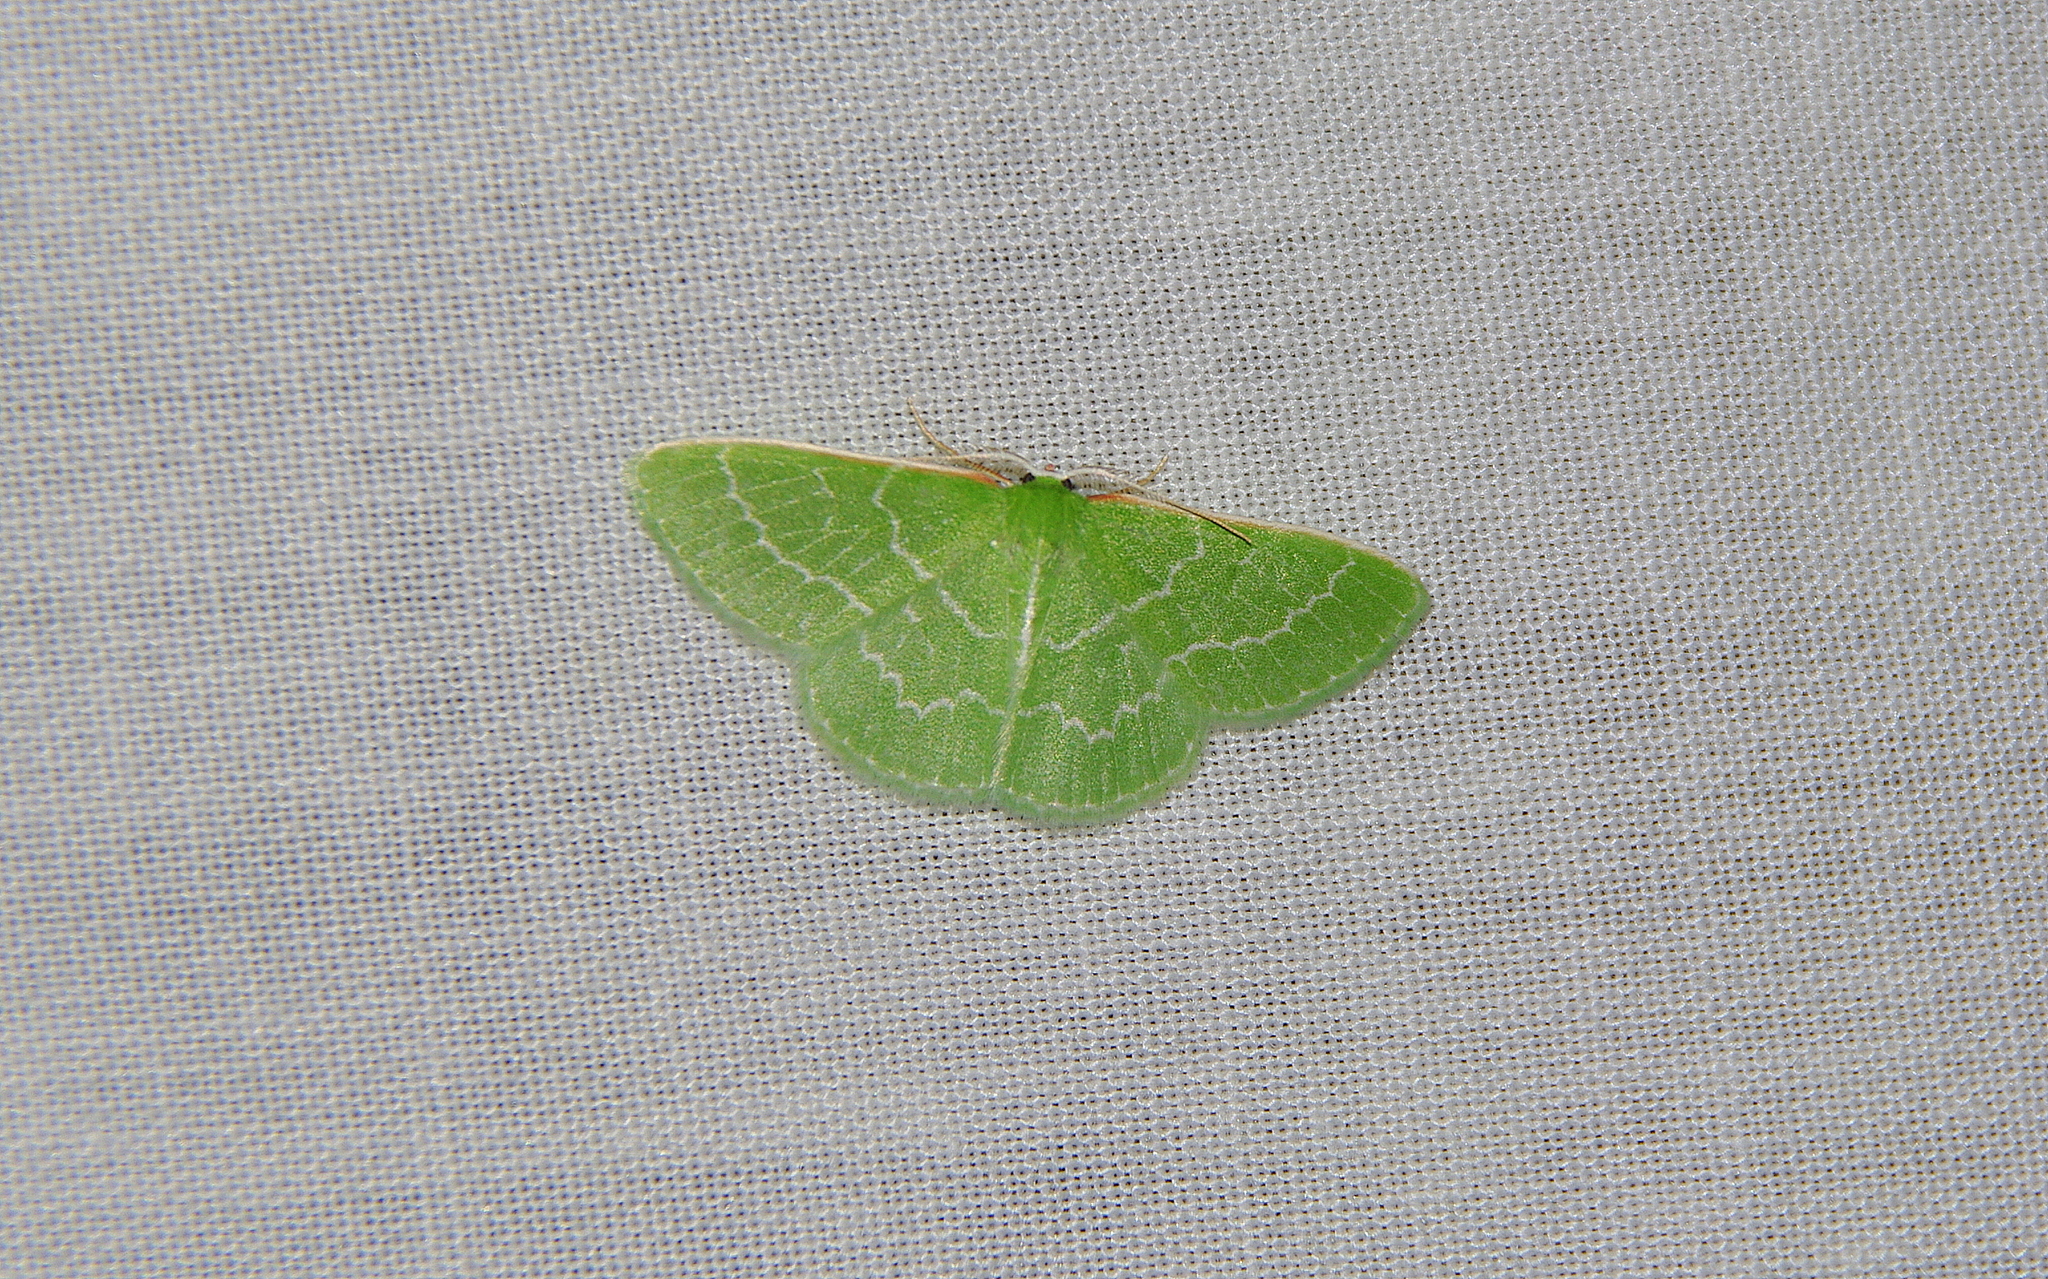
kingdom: Animalia
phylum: Arthropoda
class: Insecta
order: Lepidoptera
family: Geometridae
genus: Synchlora
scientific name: Synchlora aerata
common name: Wavy-lined emerald
